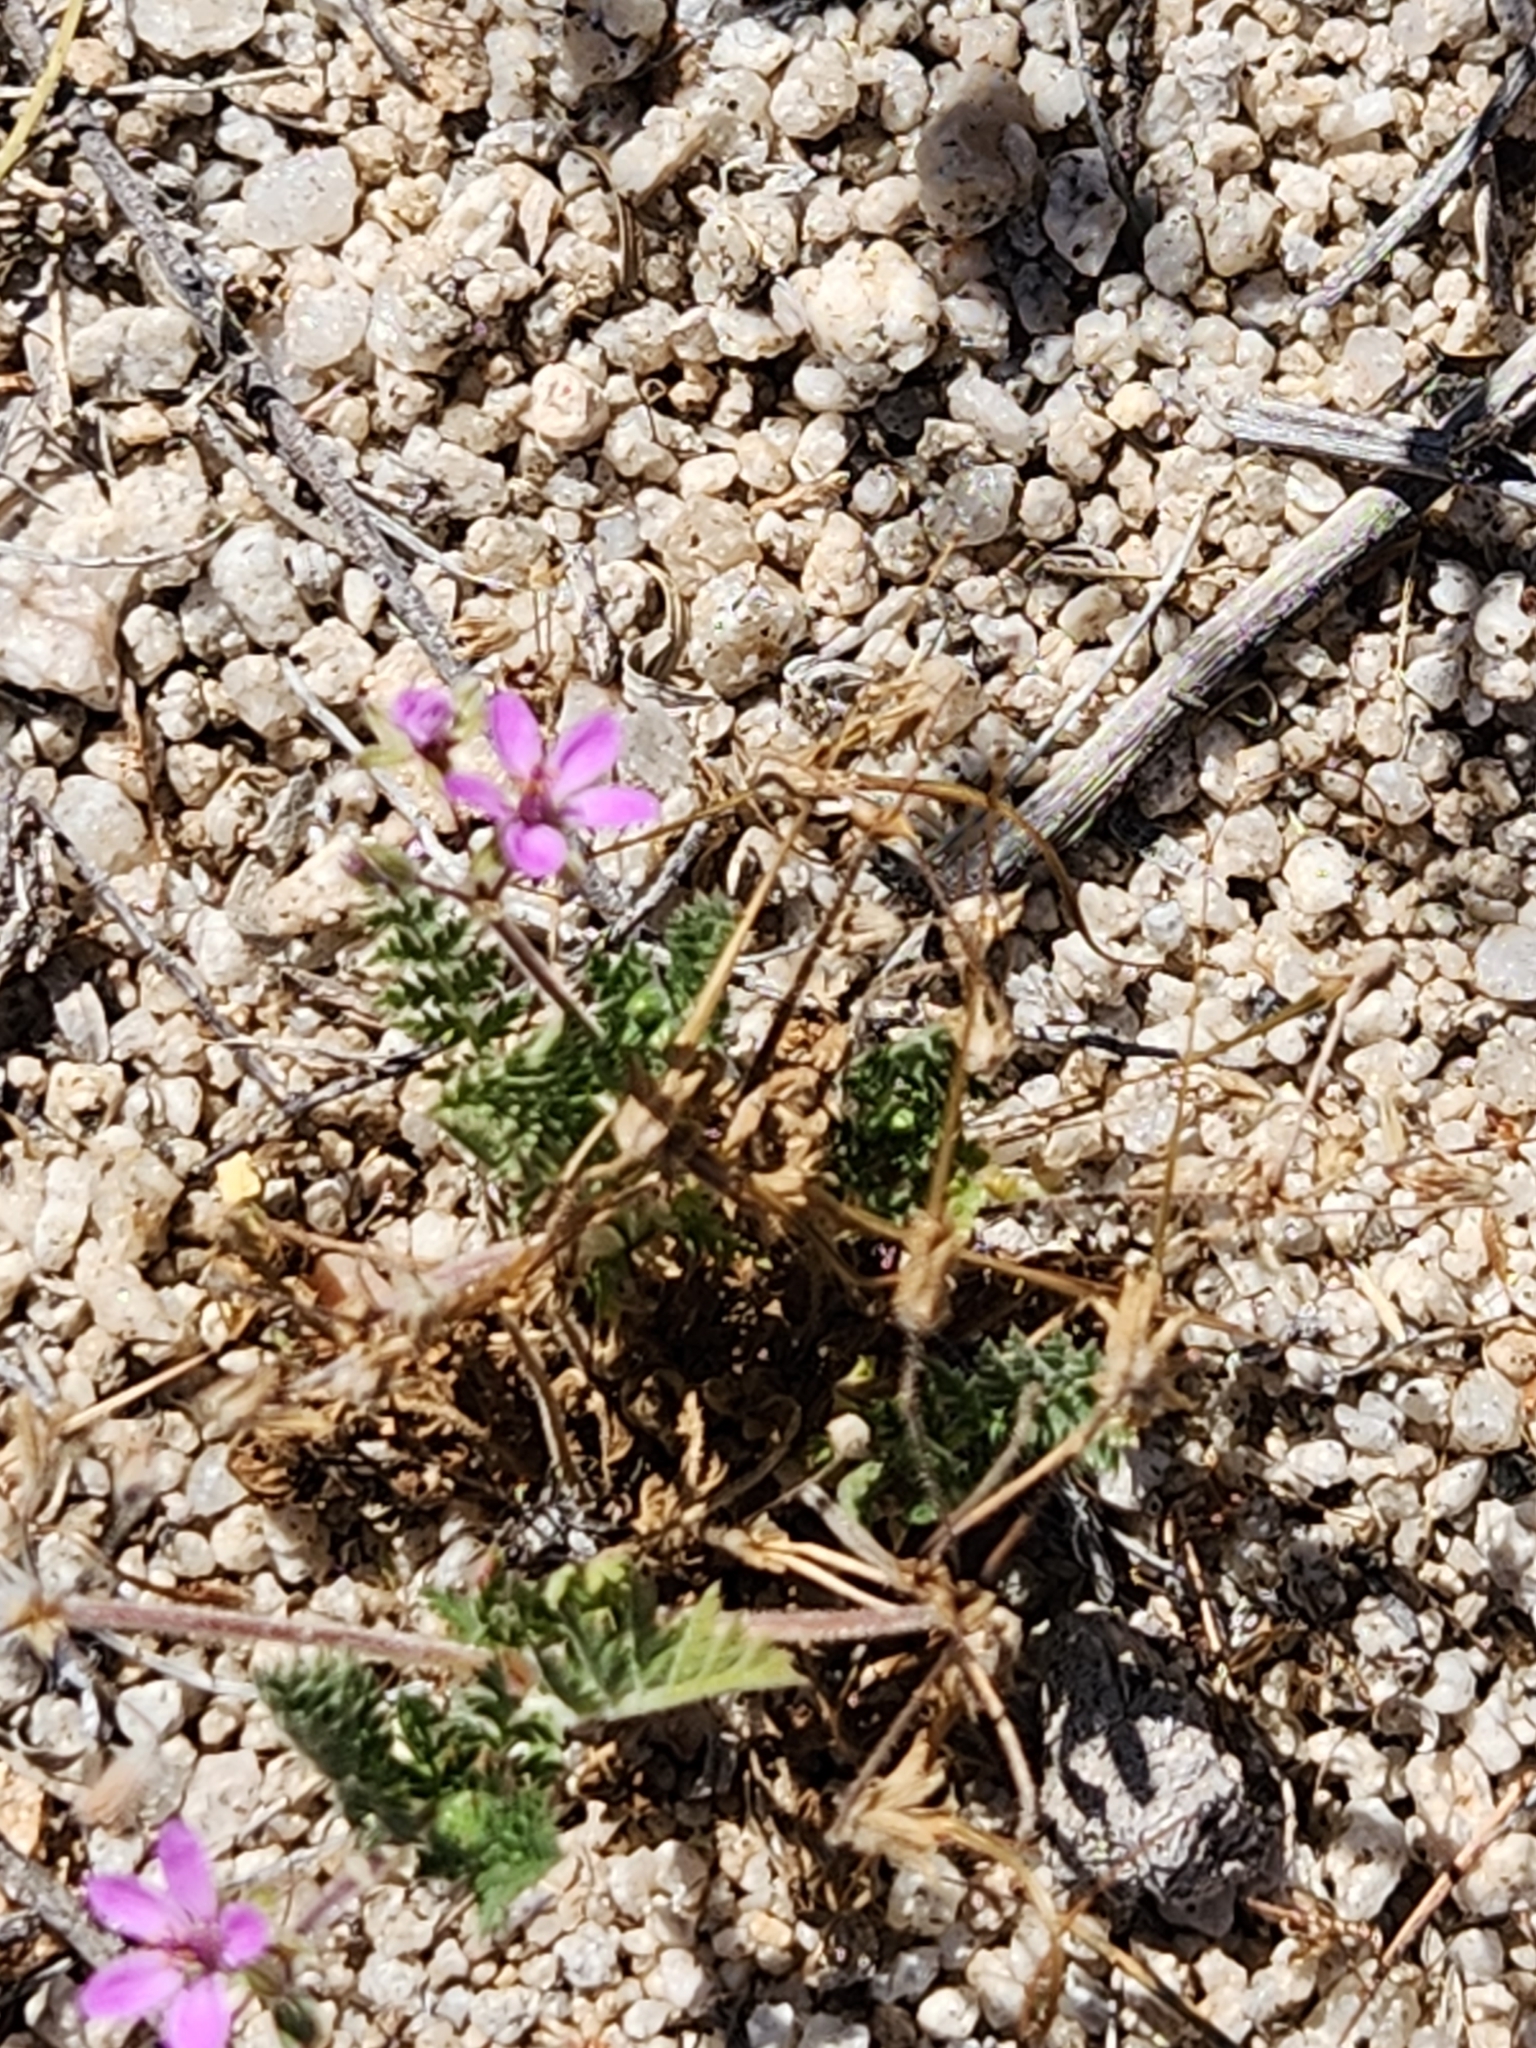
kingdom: Plantae
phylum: Tracheophyta
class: Magnoliopsida
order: Geraniales
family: Geraniaceae
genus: Erodium
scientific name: Erodium cicutarium
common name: Common stork's-bill
